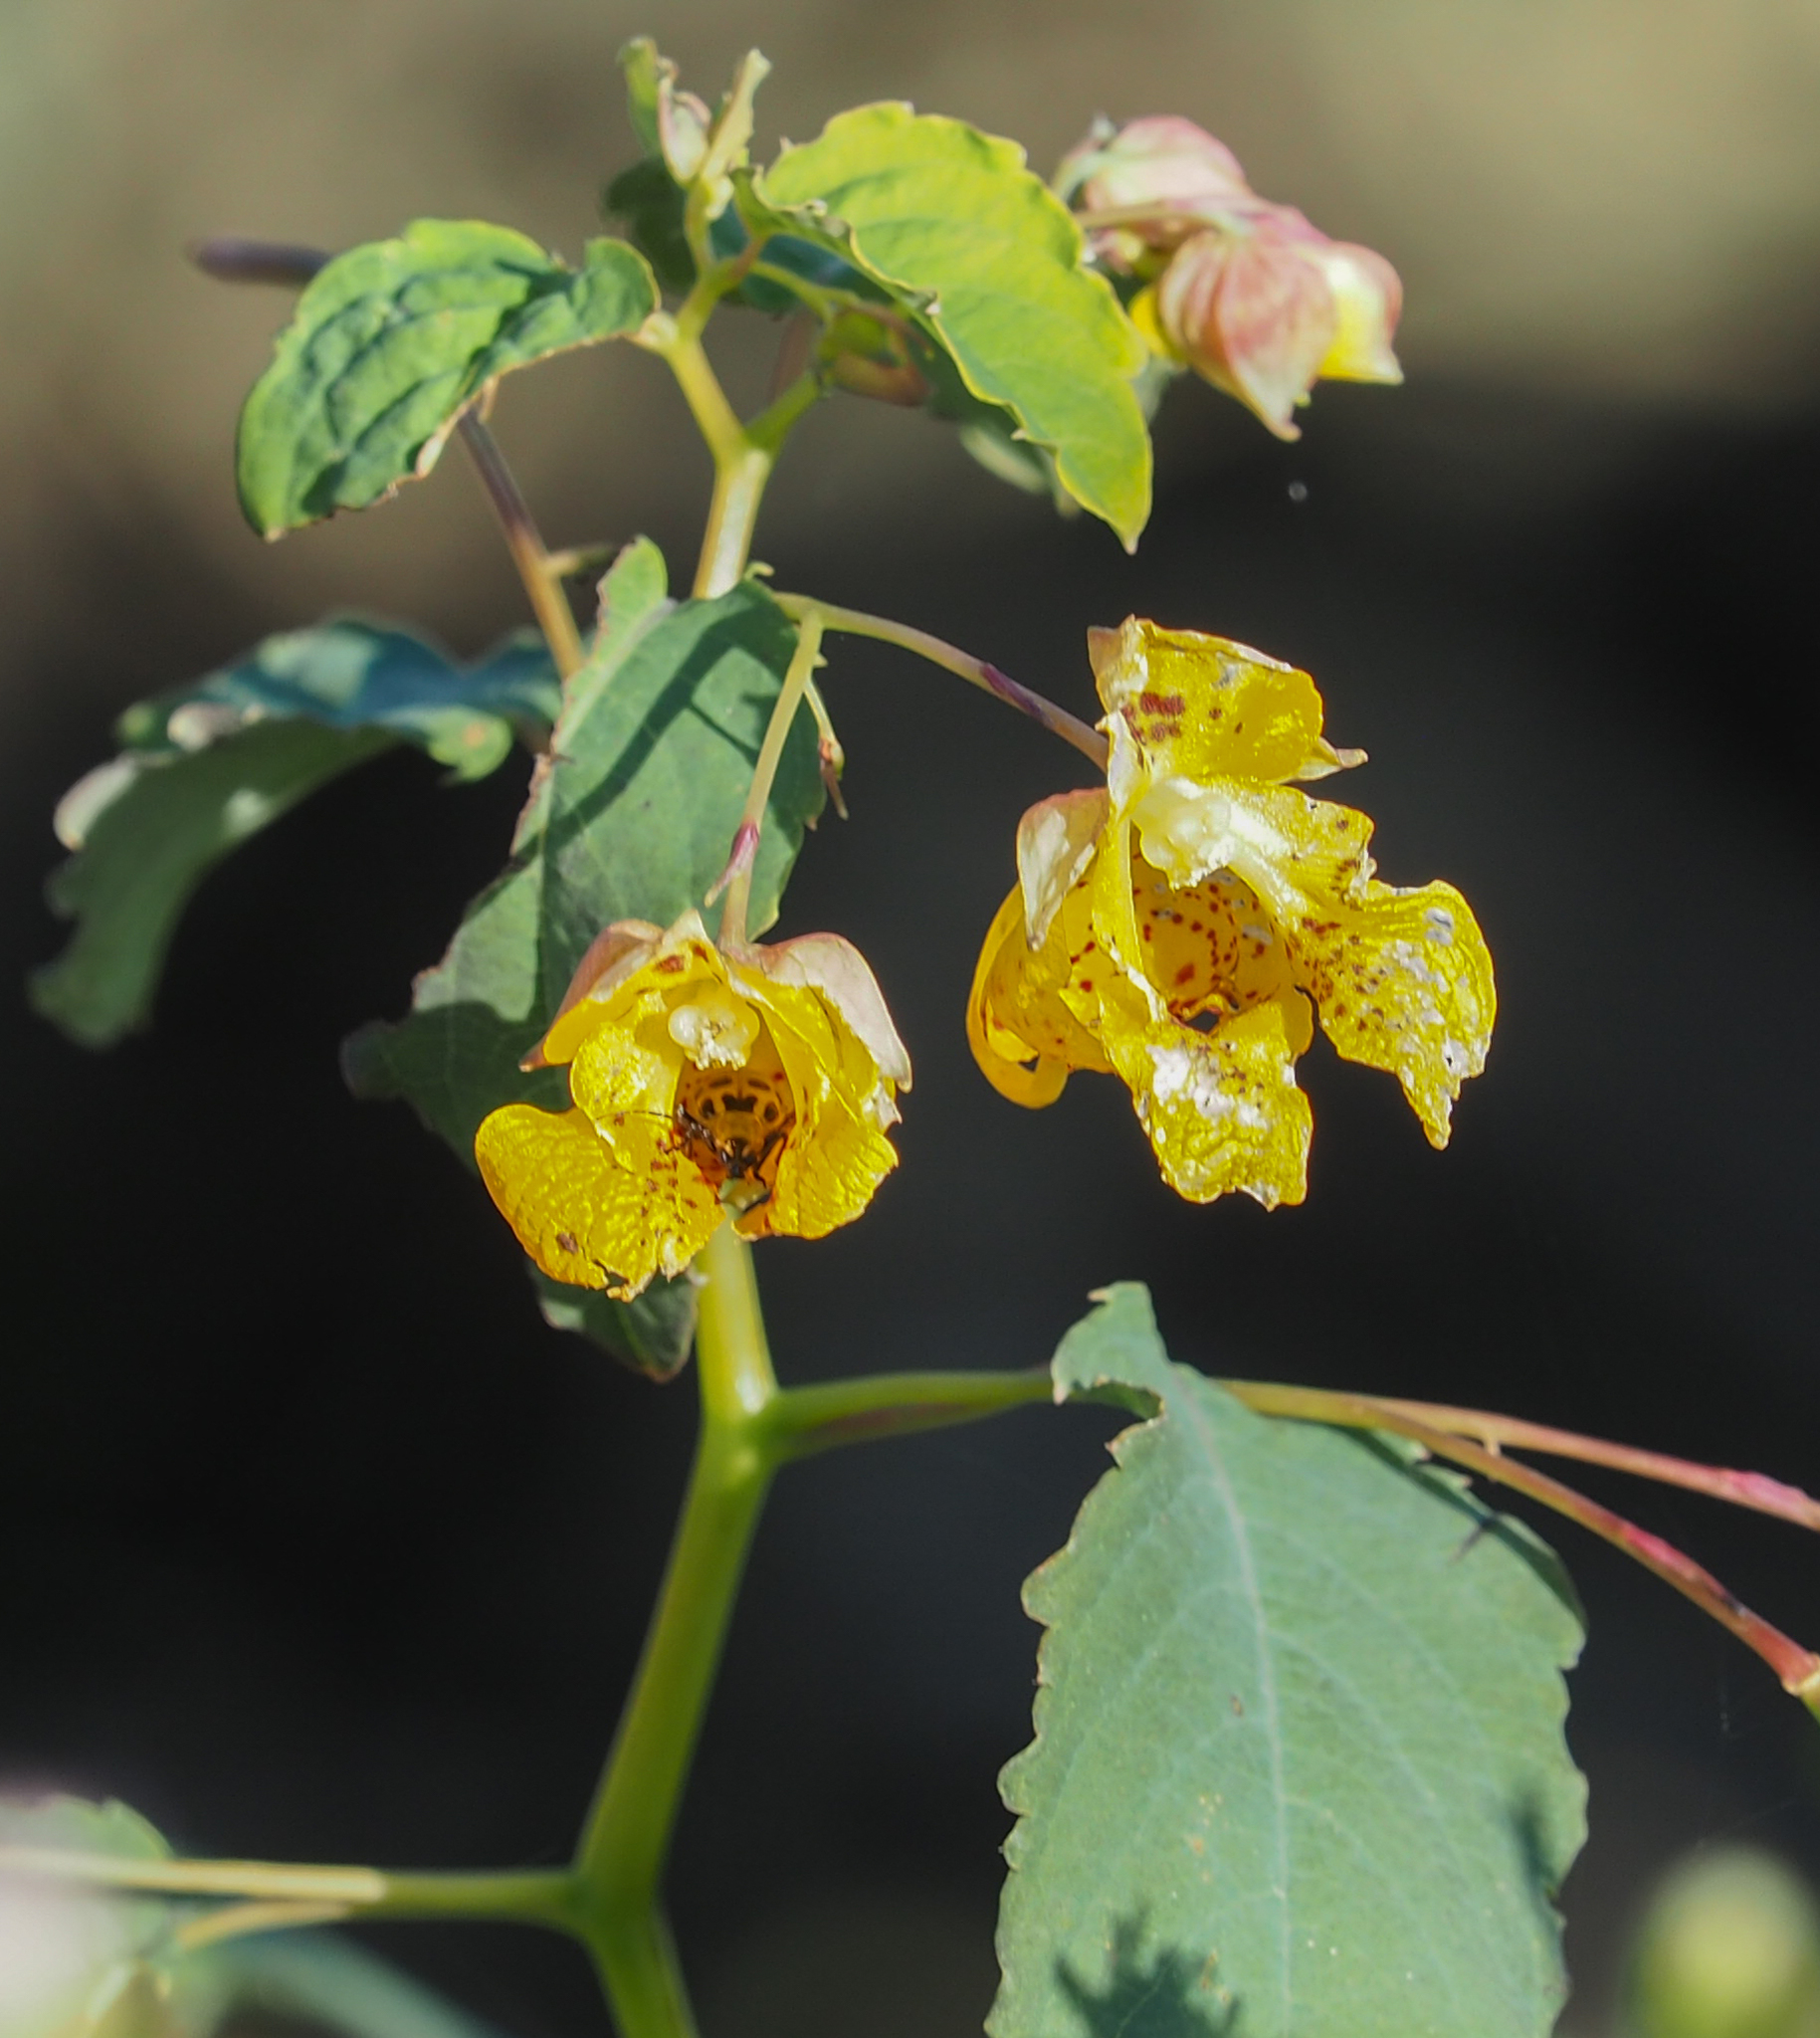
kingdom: Plantae
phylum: Tracheophyta
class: Magnoliopsida
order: Ericales
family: Balsaminaceae
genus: Impatiens
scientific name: Impatiens capensis
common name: Orange balsam
